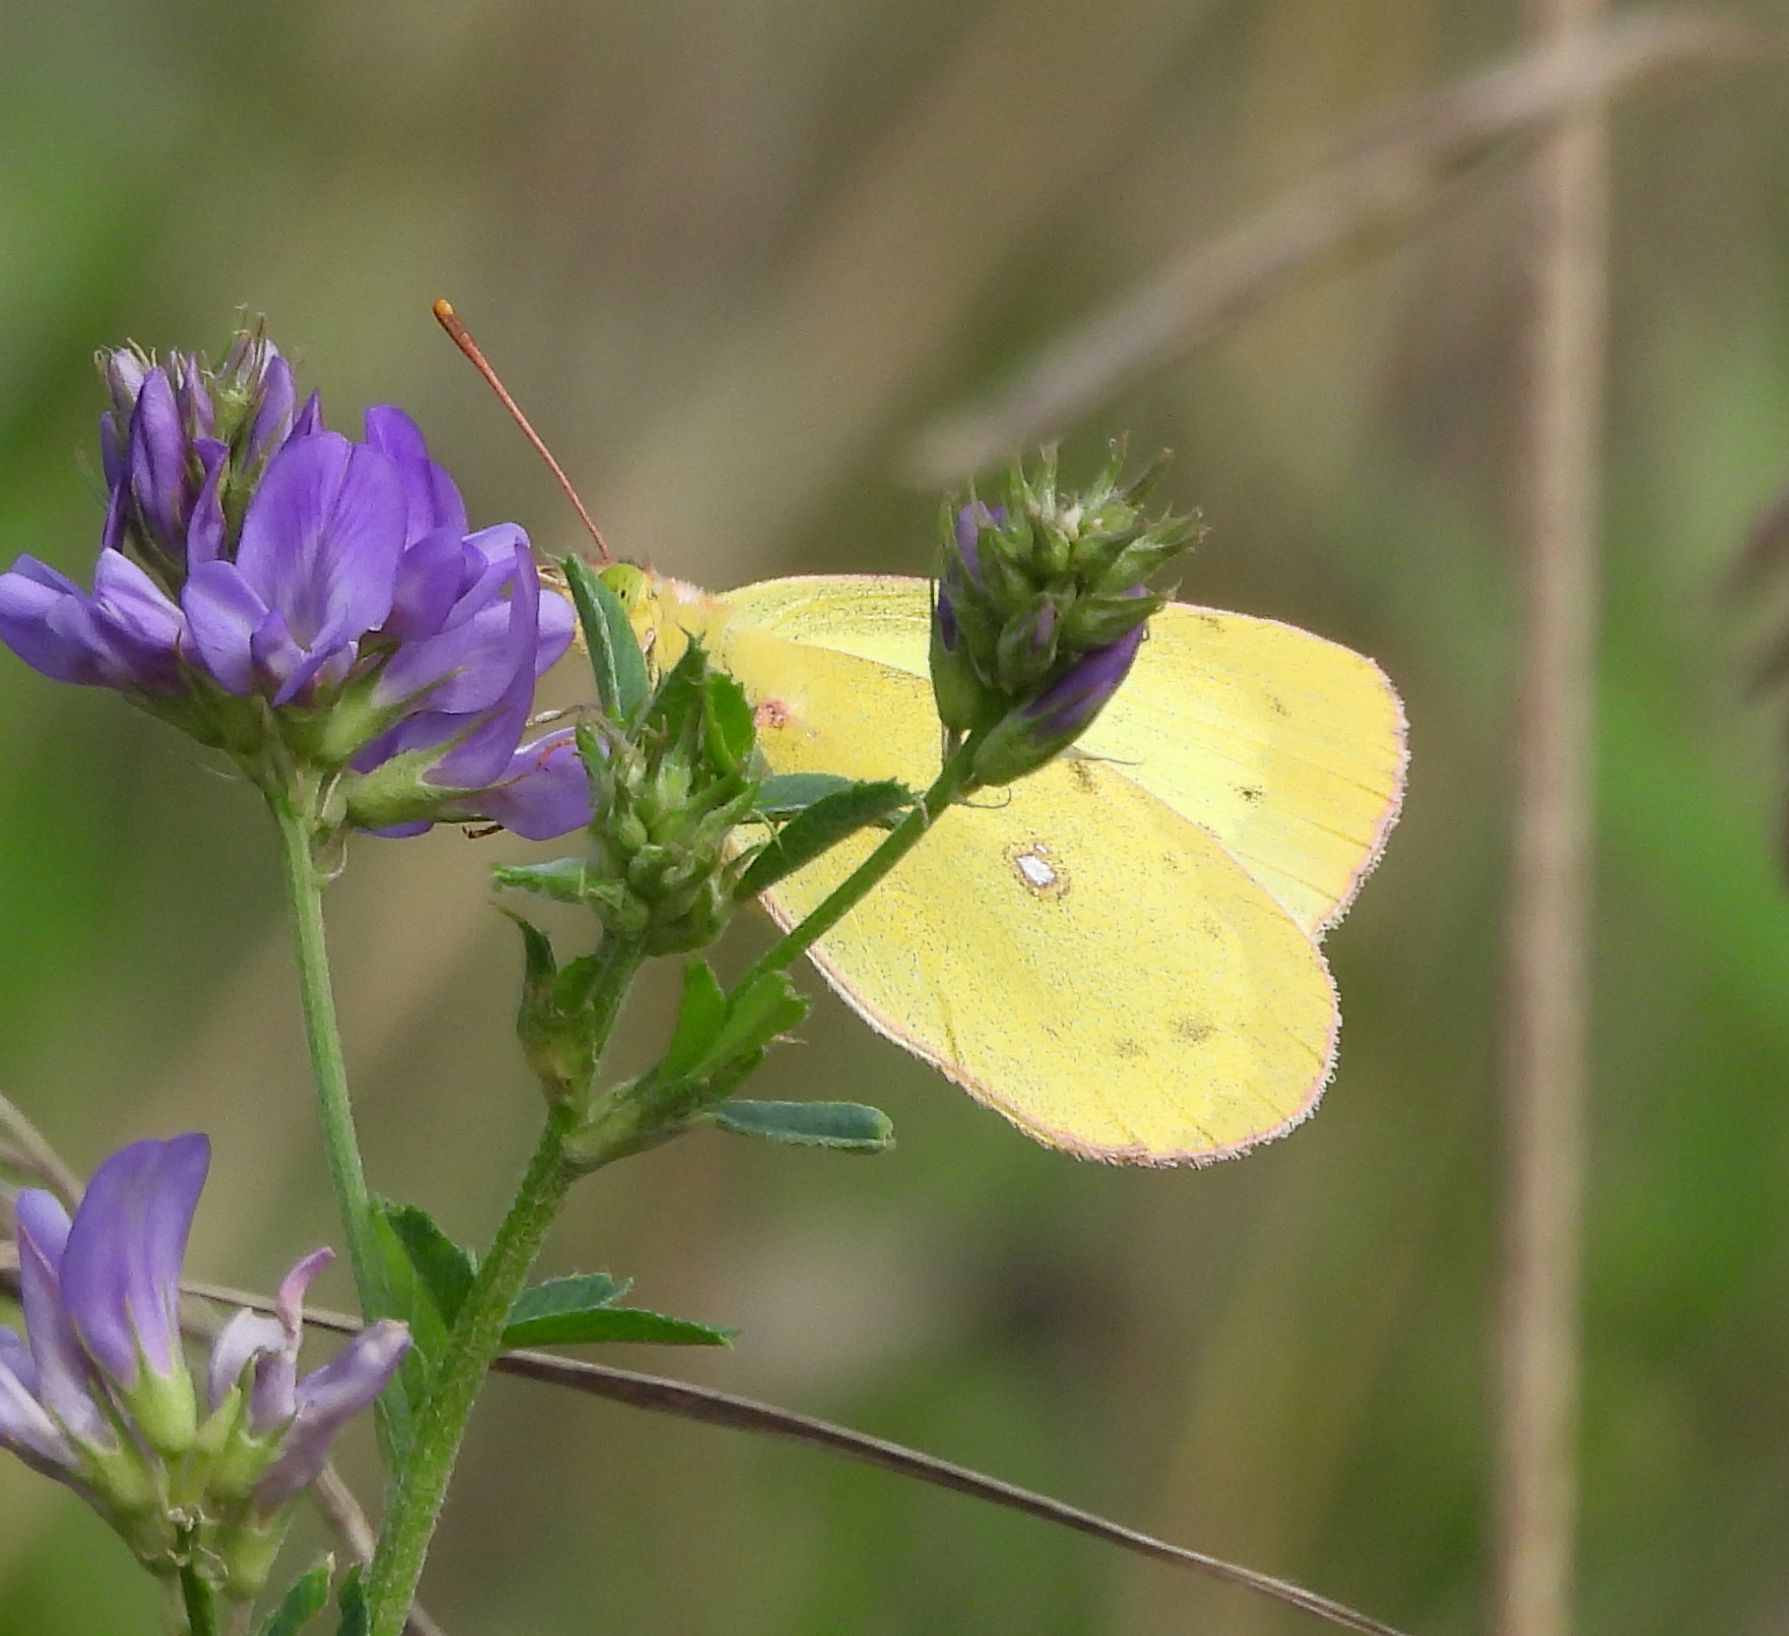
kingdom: Animalia
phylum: Arthropoda
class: Insecta
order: Lepidoptera
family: Pieridae
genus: Colias
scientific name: Colias philodice
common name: Clouded sulphur
